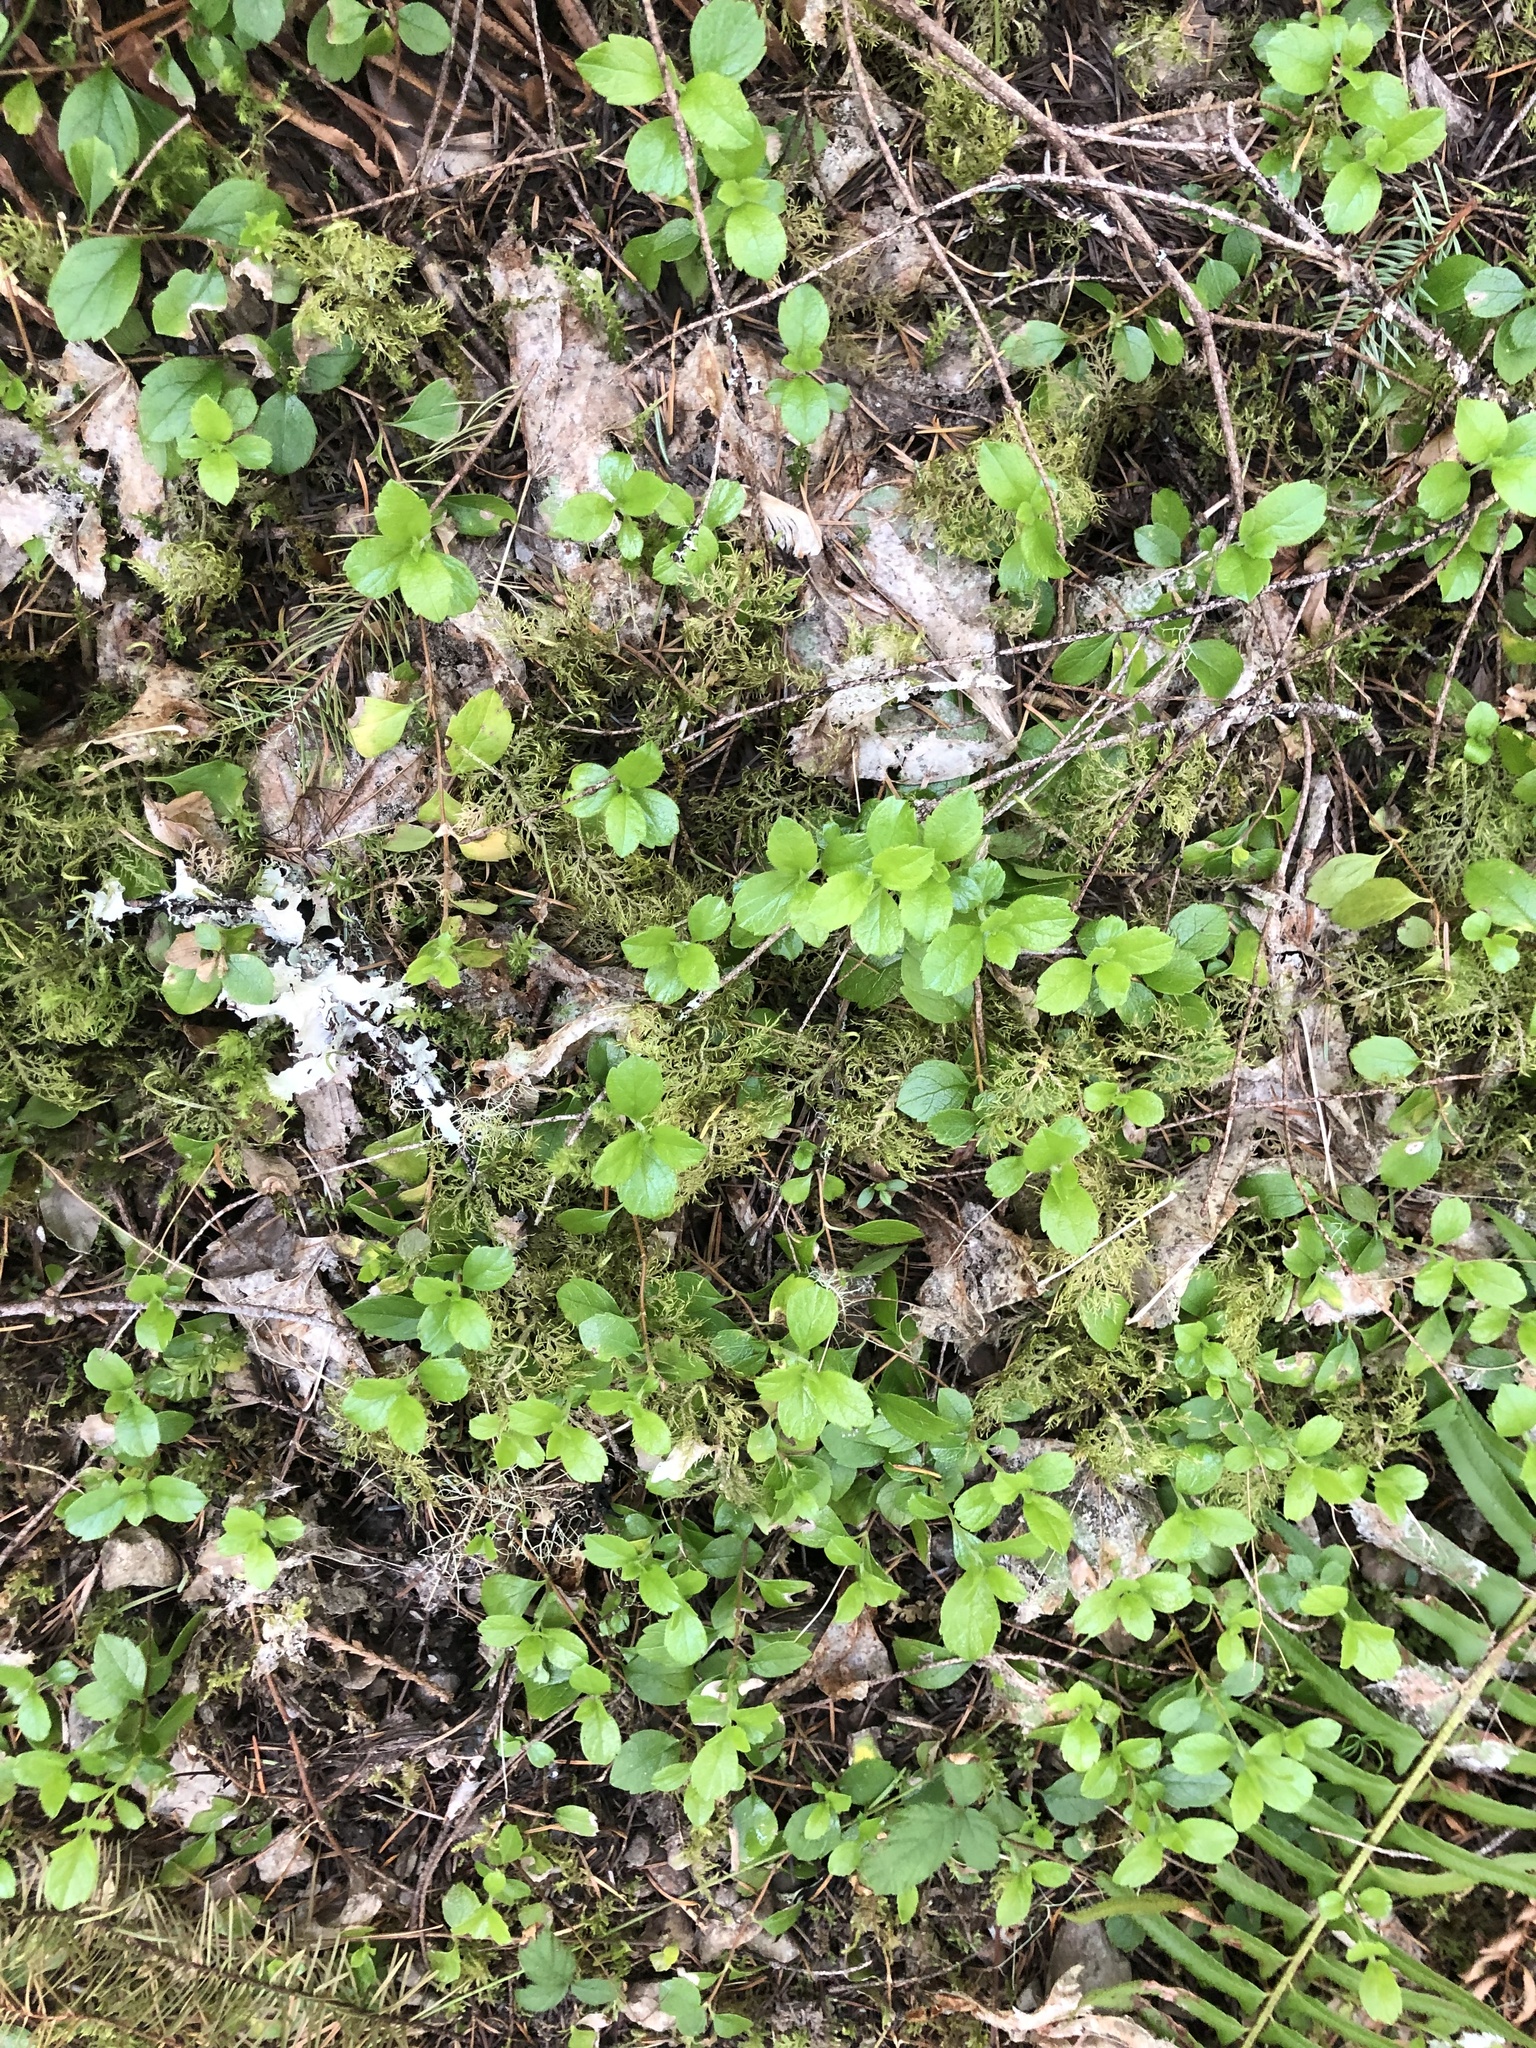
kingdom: Plantae
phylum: Tracheophyta
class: Magnoliopsida
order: Dipsacales
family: Caprifoliaceae
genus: Linnaea
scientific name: Linnaea borealis
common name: Twinflower
